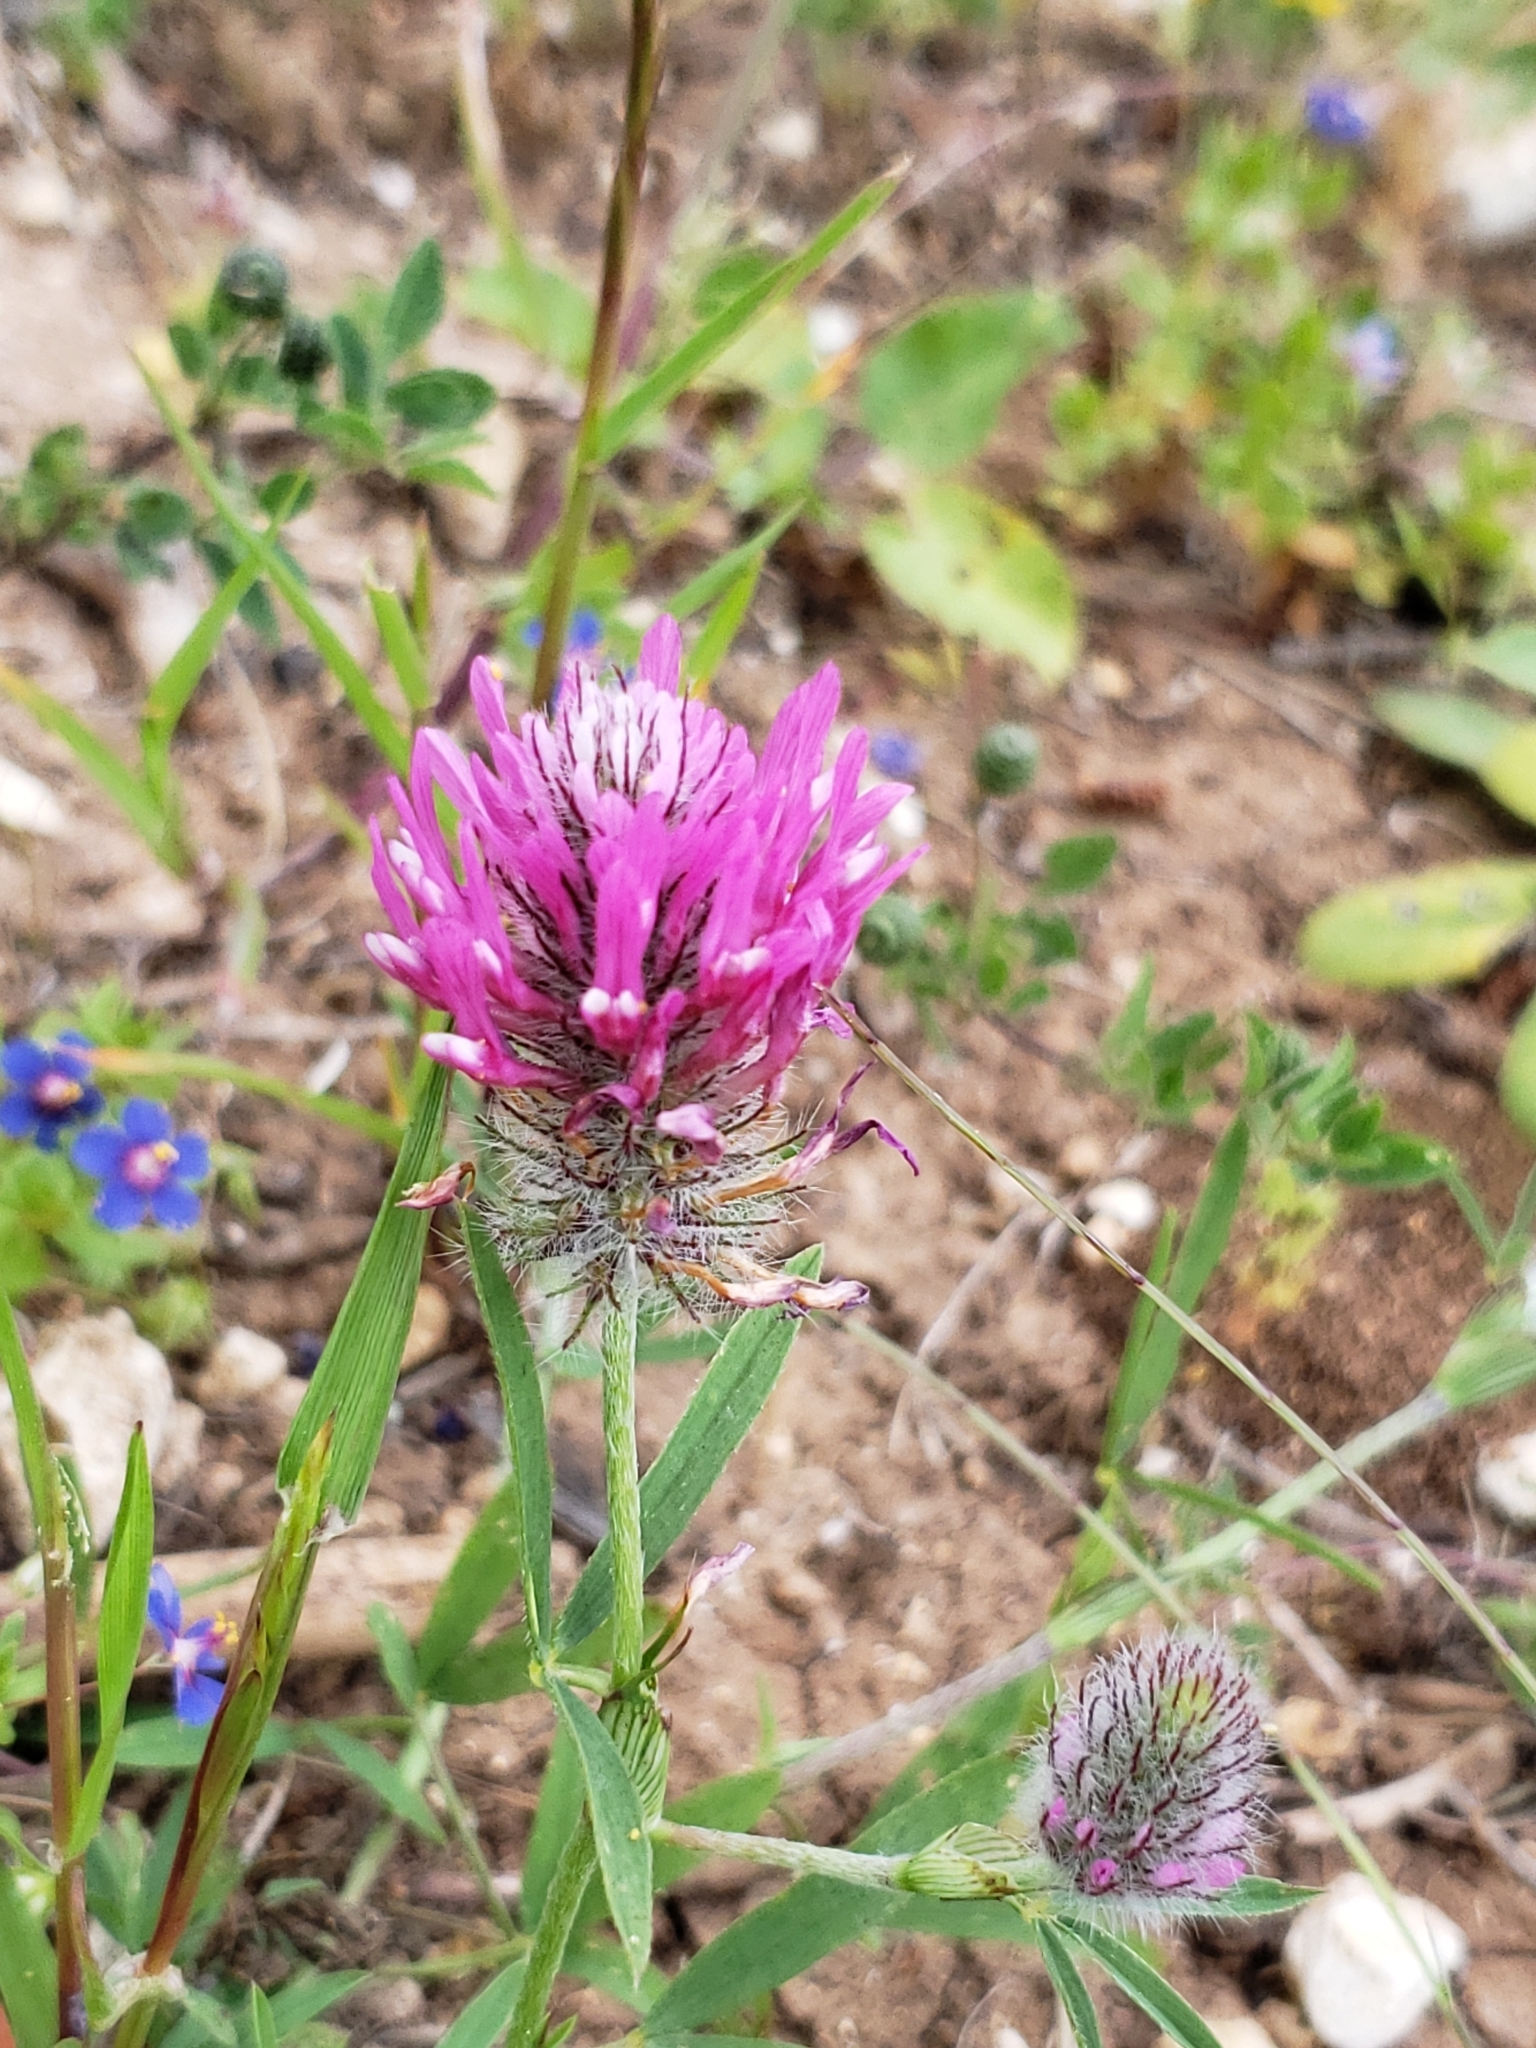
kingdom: Plantae
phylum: Tracheophyta
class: Magnoliopsida
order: Fabales
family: Fabaceae
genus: Trifolium
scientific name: Trifolium purpureum
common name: Purple clover
